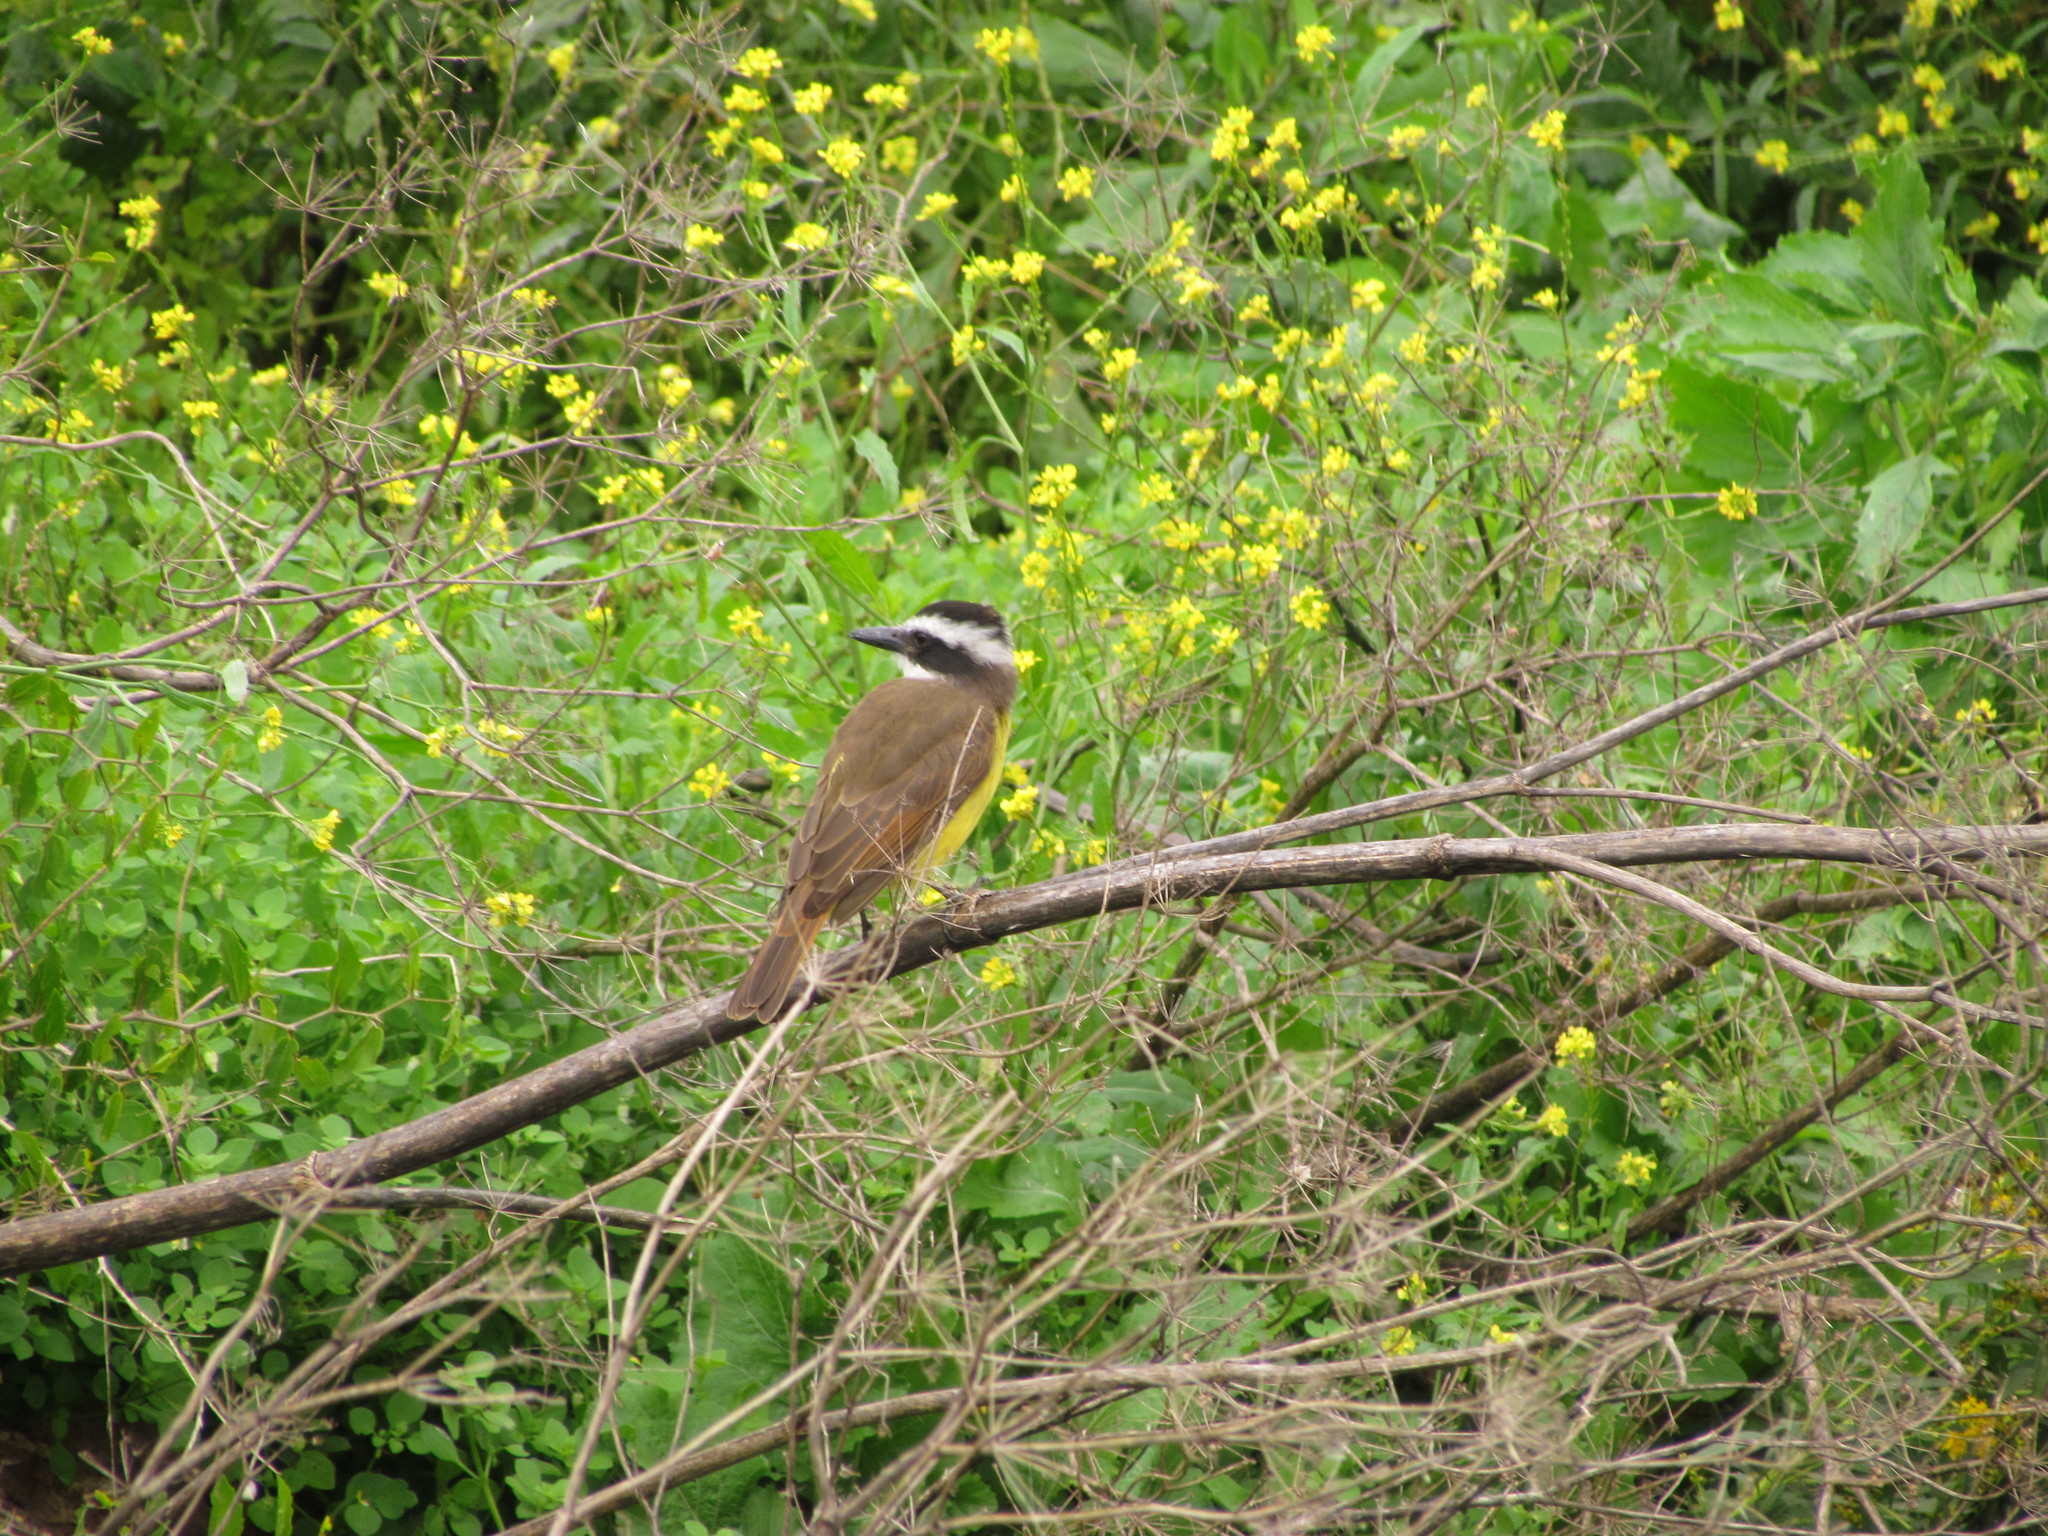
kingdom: Animalia
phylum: Chordata
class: Aves
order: Passeriformes
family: Tyrannidae
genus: Pitangus
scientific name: Pitangus sulphuratus
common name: Great kiskadee
